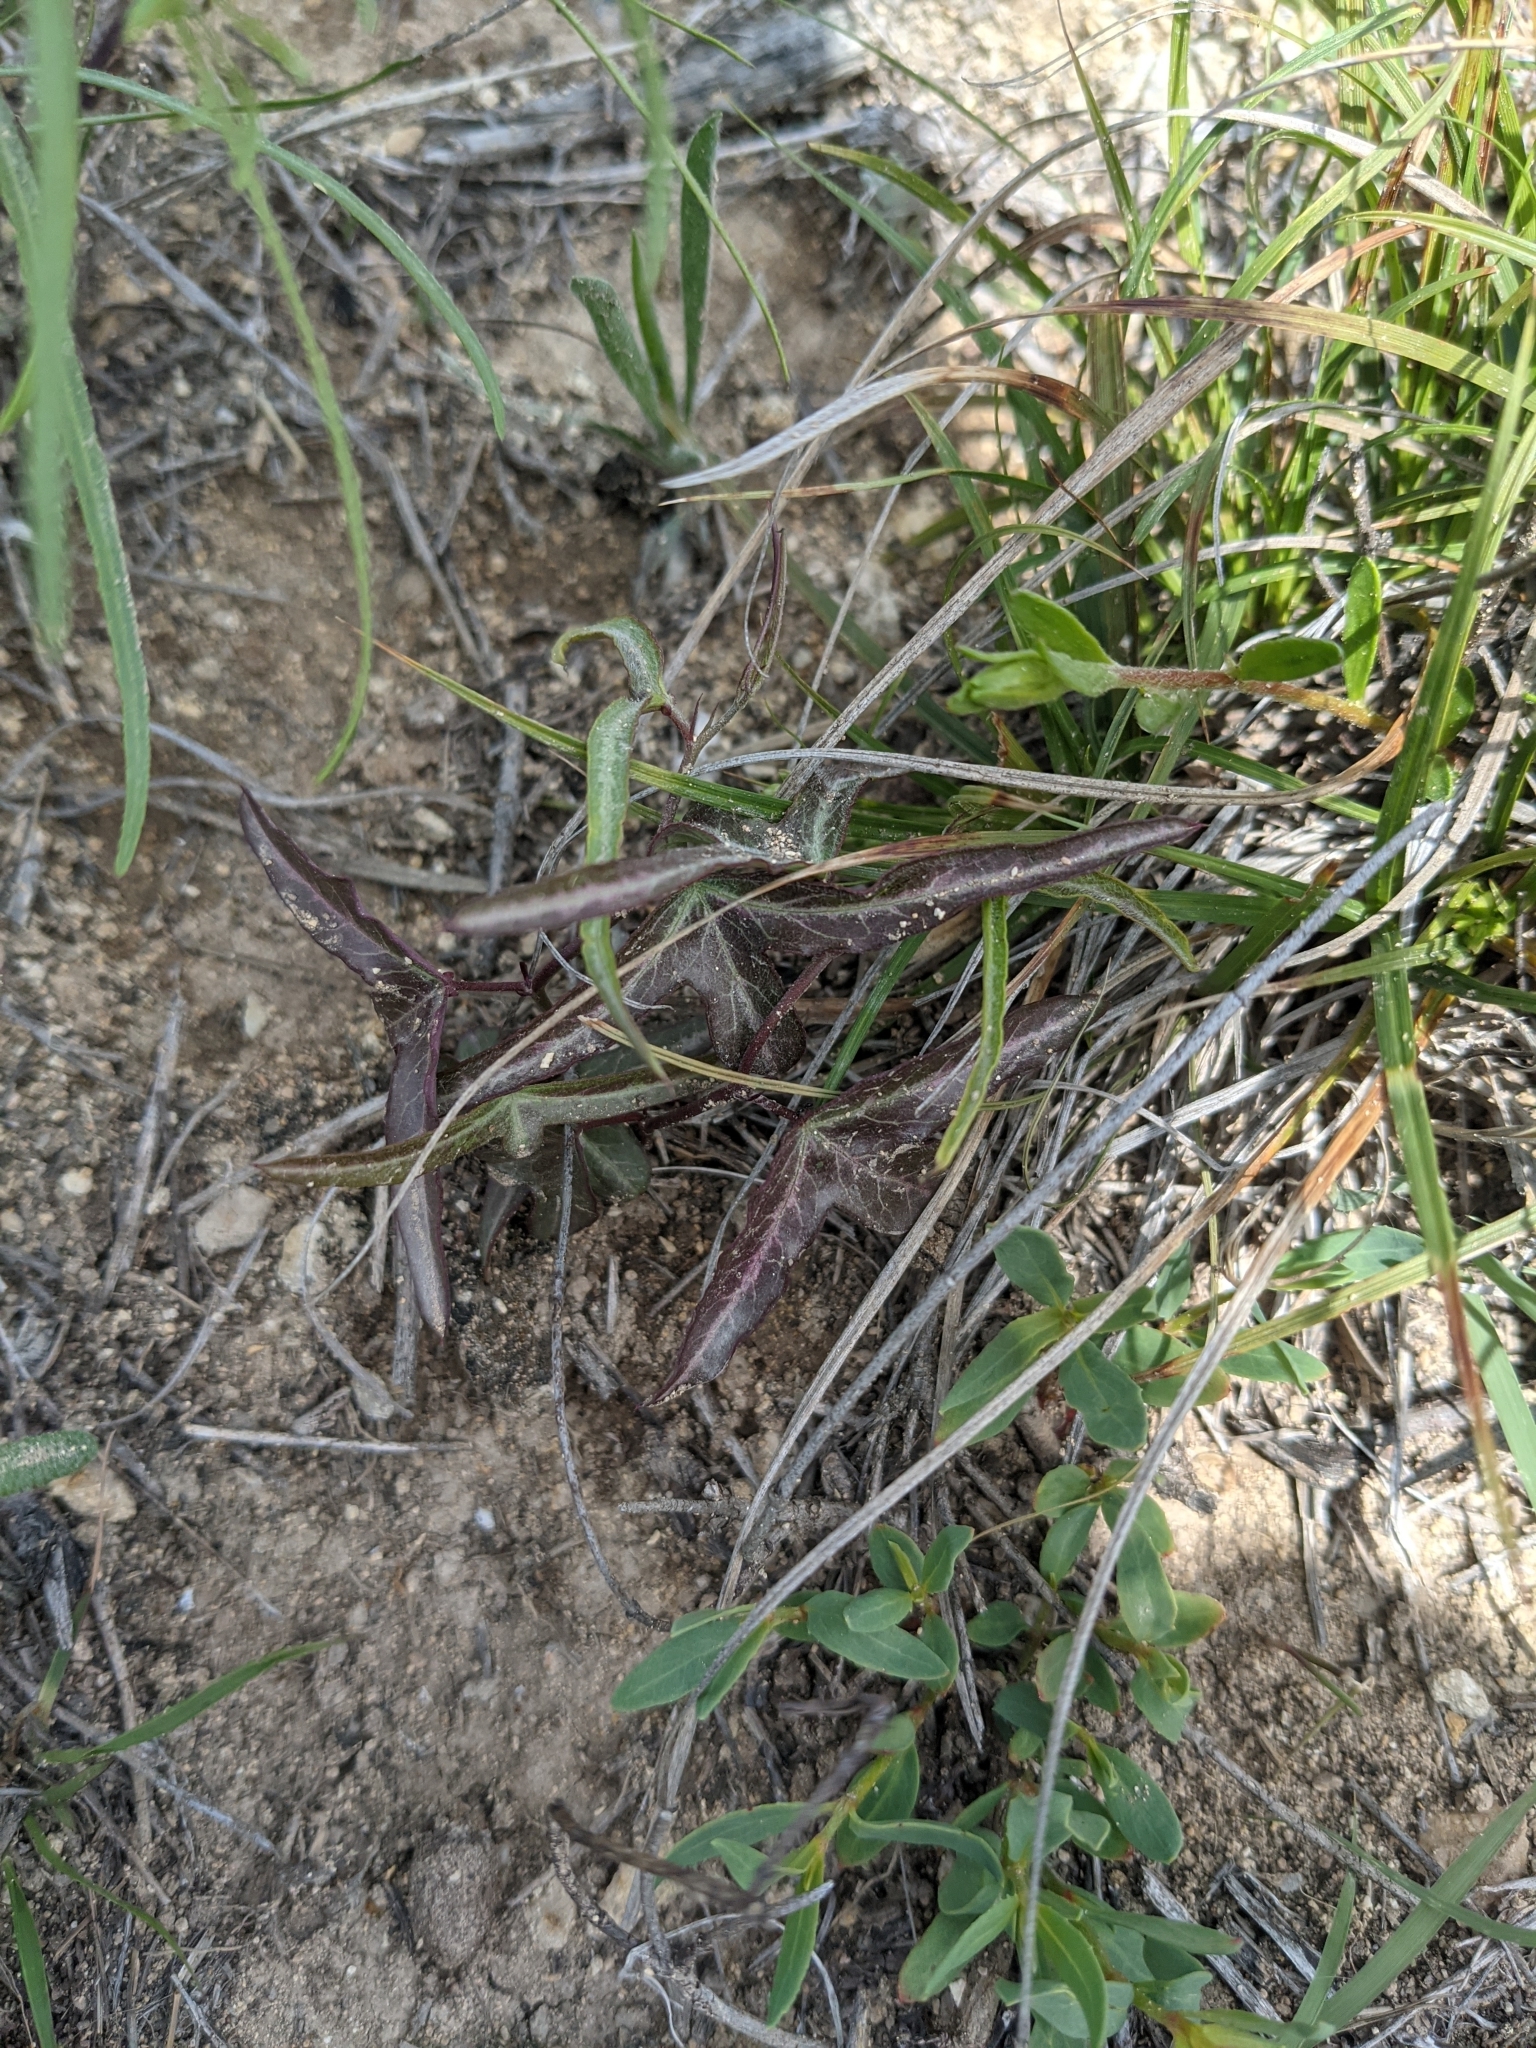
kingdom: Plantae
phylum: Tracheophyta
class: Magnoliopsida
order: Malpighiales
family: Passifloraceae
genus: Passiflora
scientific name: Passiflora tenuiloba
